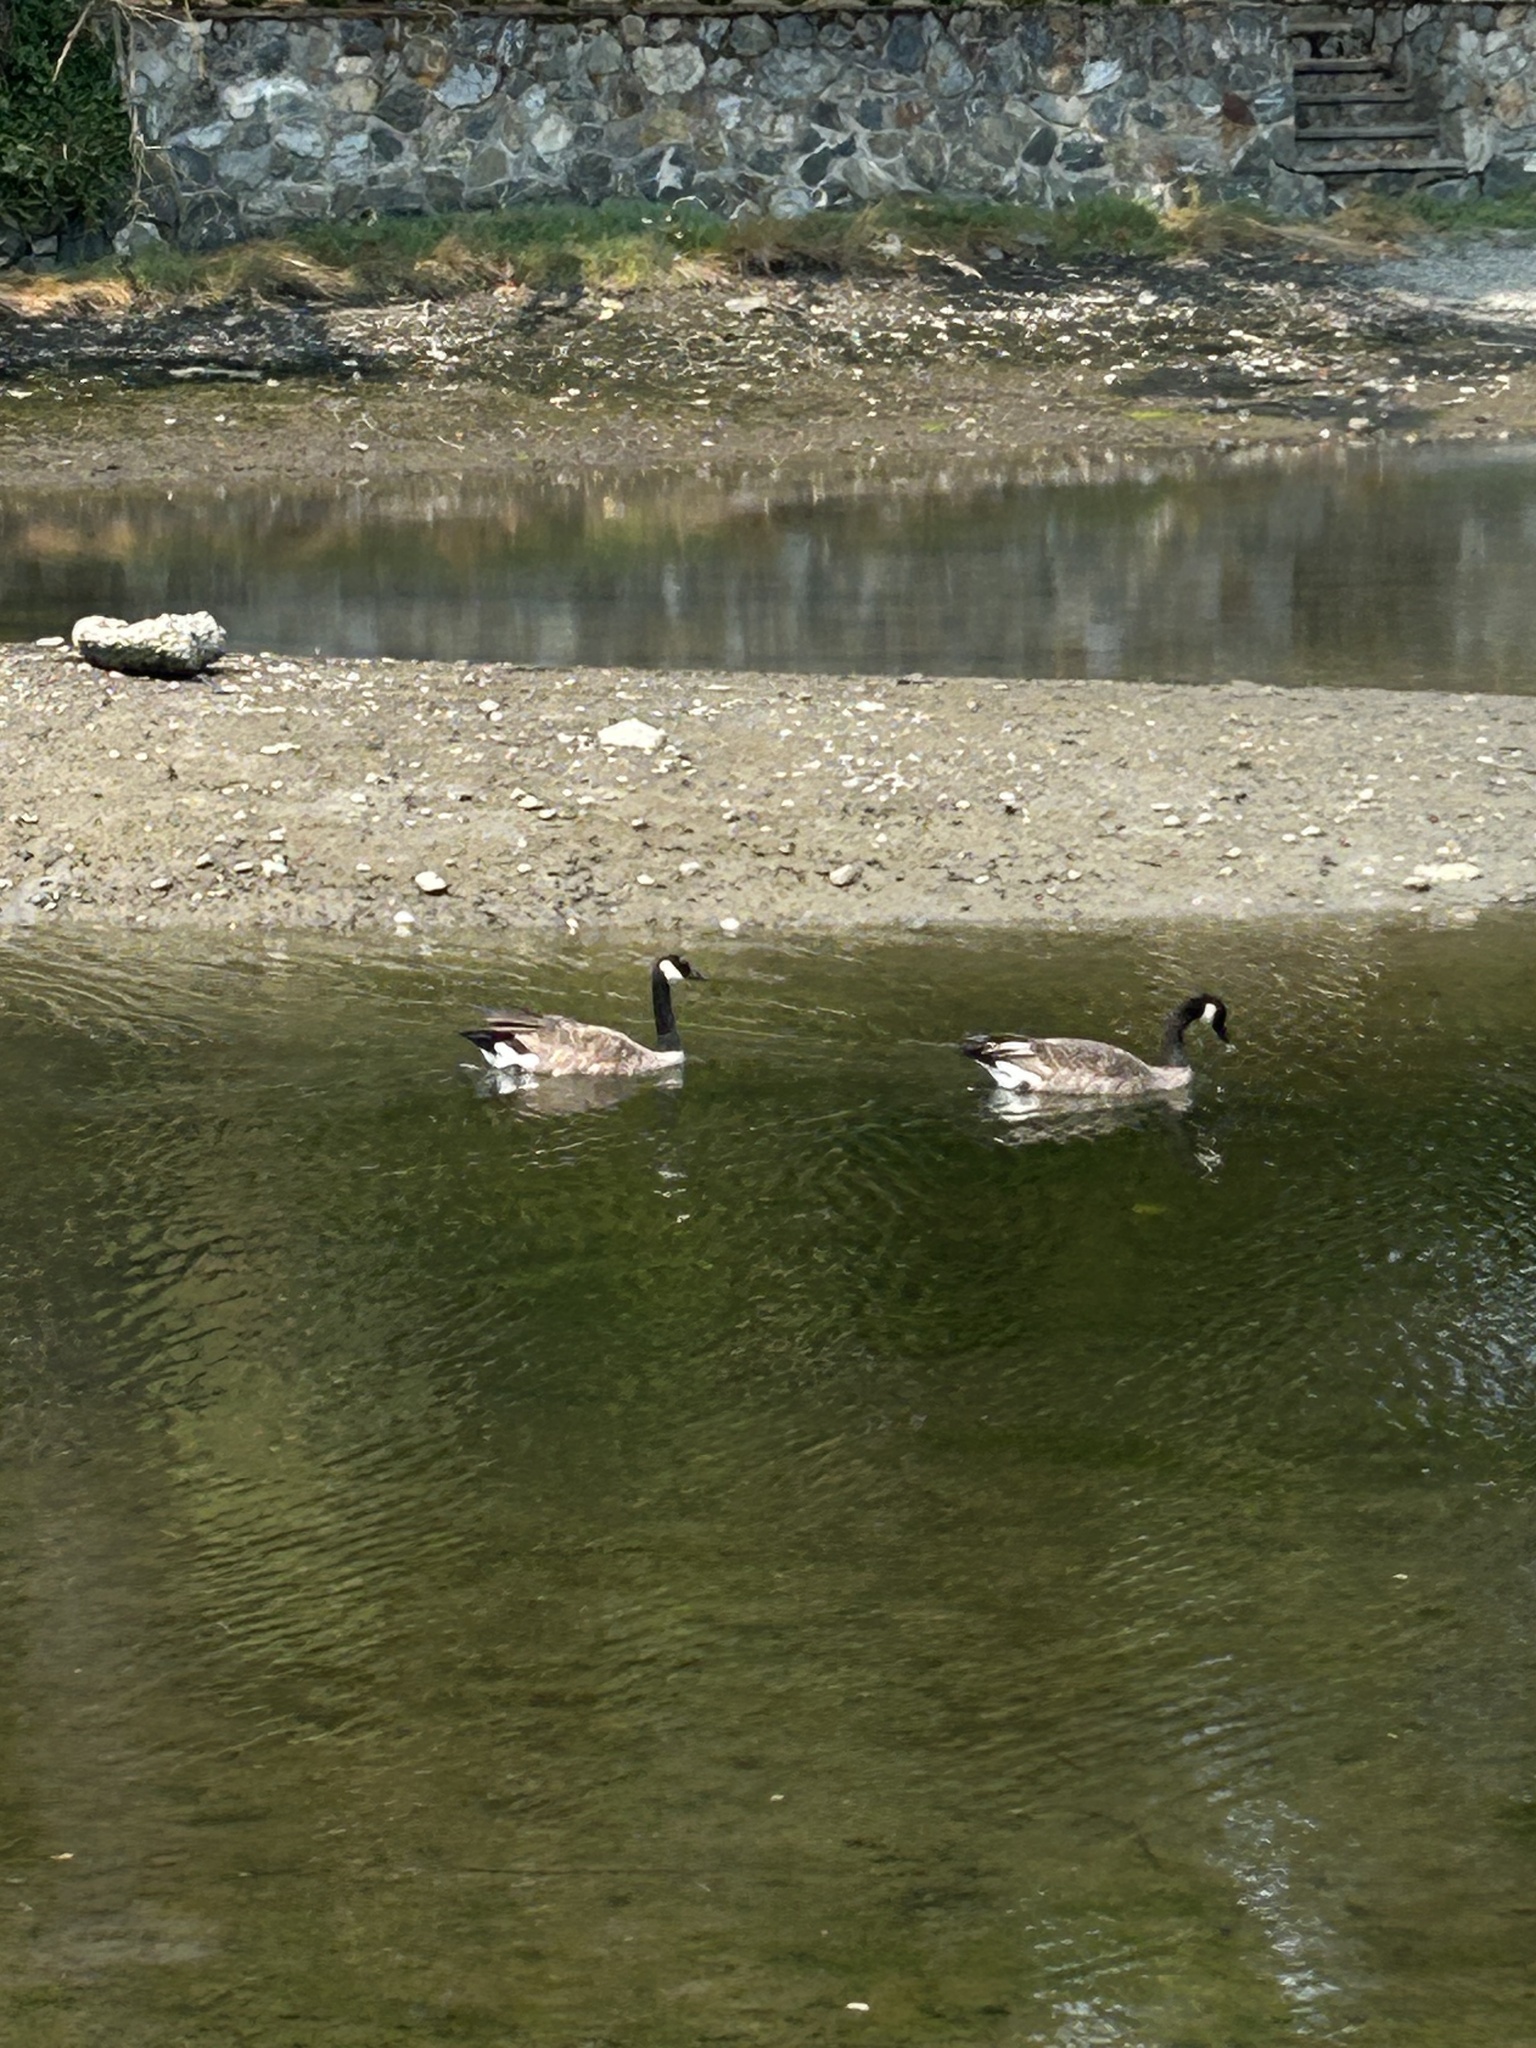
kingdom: Animalia
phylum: Chordata
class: Aves
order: Anseriformes
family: Anatidae
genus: Branta
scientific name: Branta canadensis
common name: Canada goose
